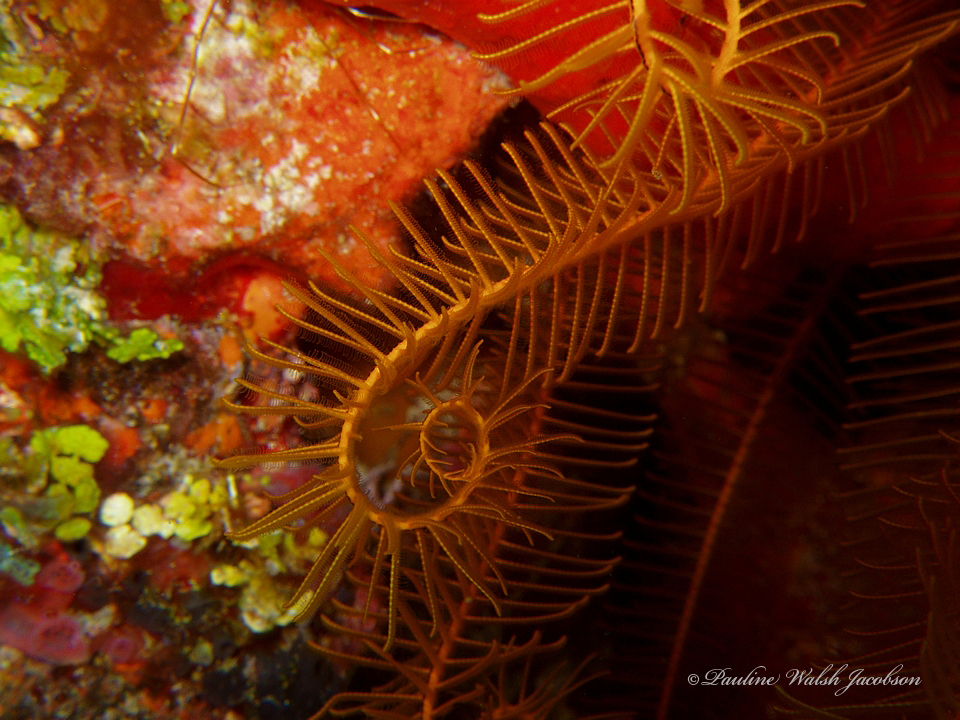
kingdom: Animalia
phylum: Echinodermata
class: Crinoidea
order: Comatulida
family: Comatulidae
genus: Davidaster
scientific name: Davidaster rubiginosus
